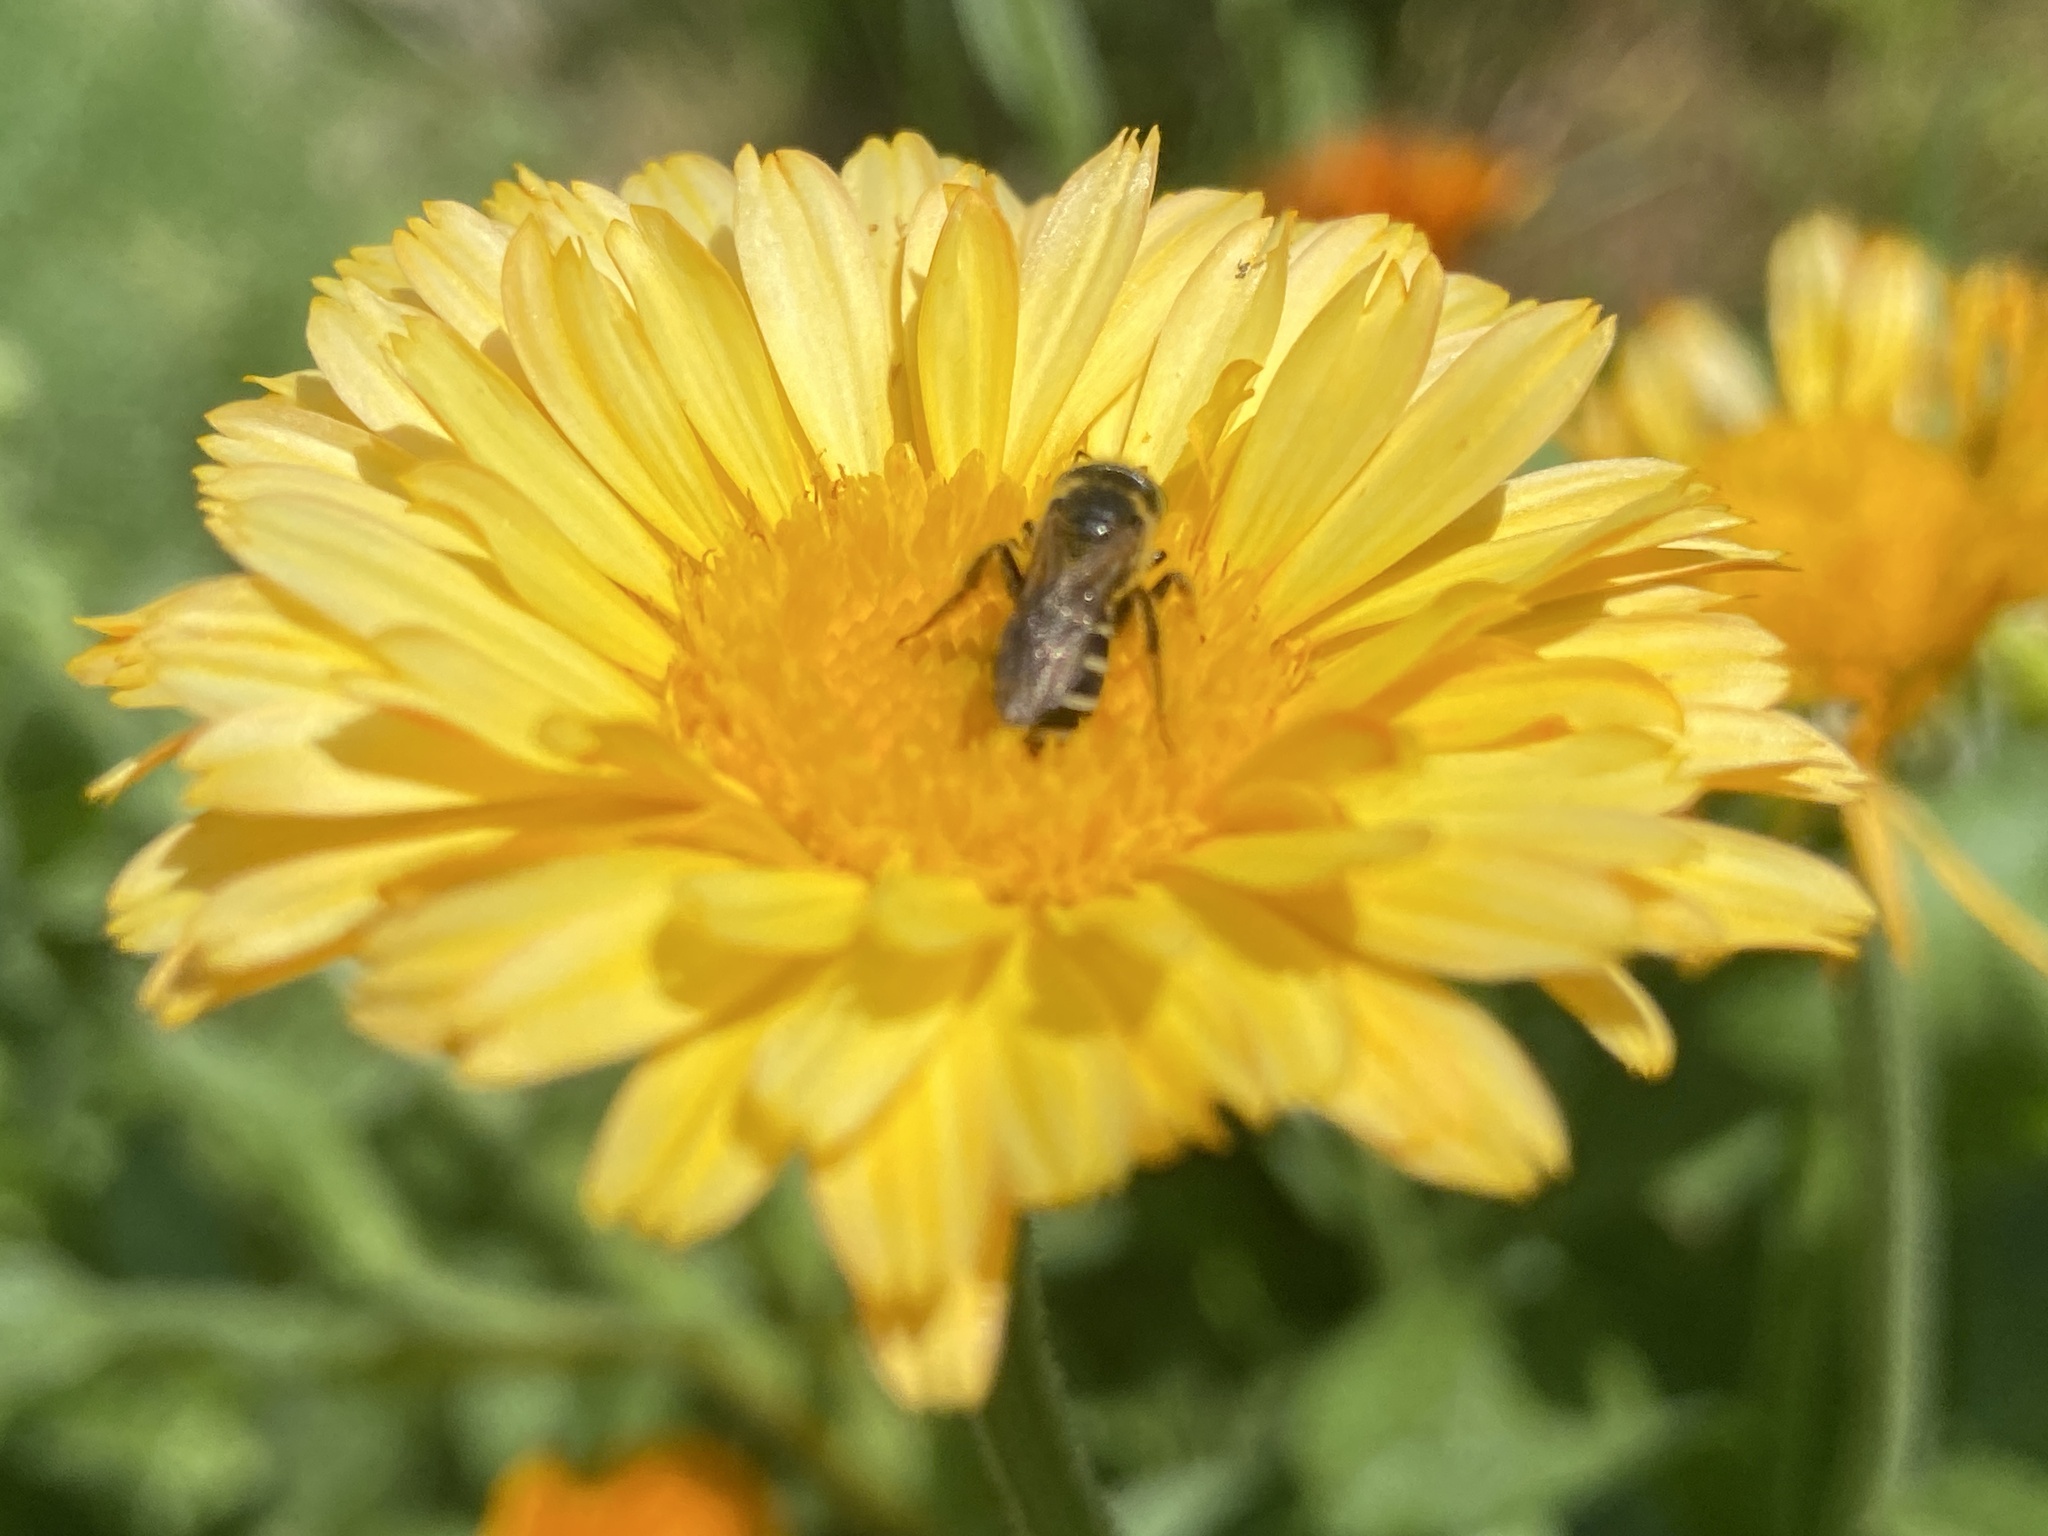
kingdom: Animalia
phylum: Arthropoda
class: Insecta
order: Hymenoptera
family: Halictidae
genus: Halictus
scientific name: Halictus ligatus
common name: Ligated furrow bee
